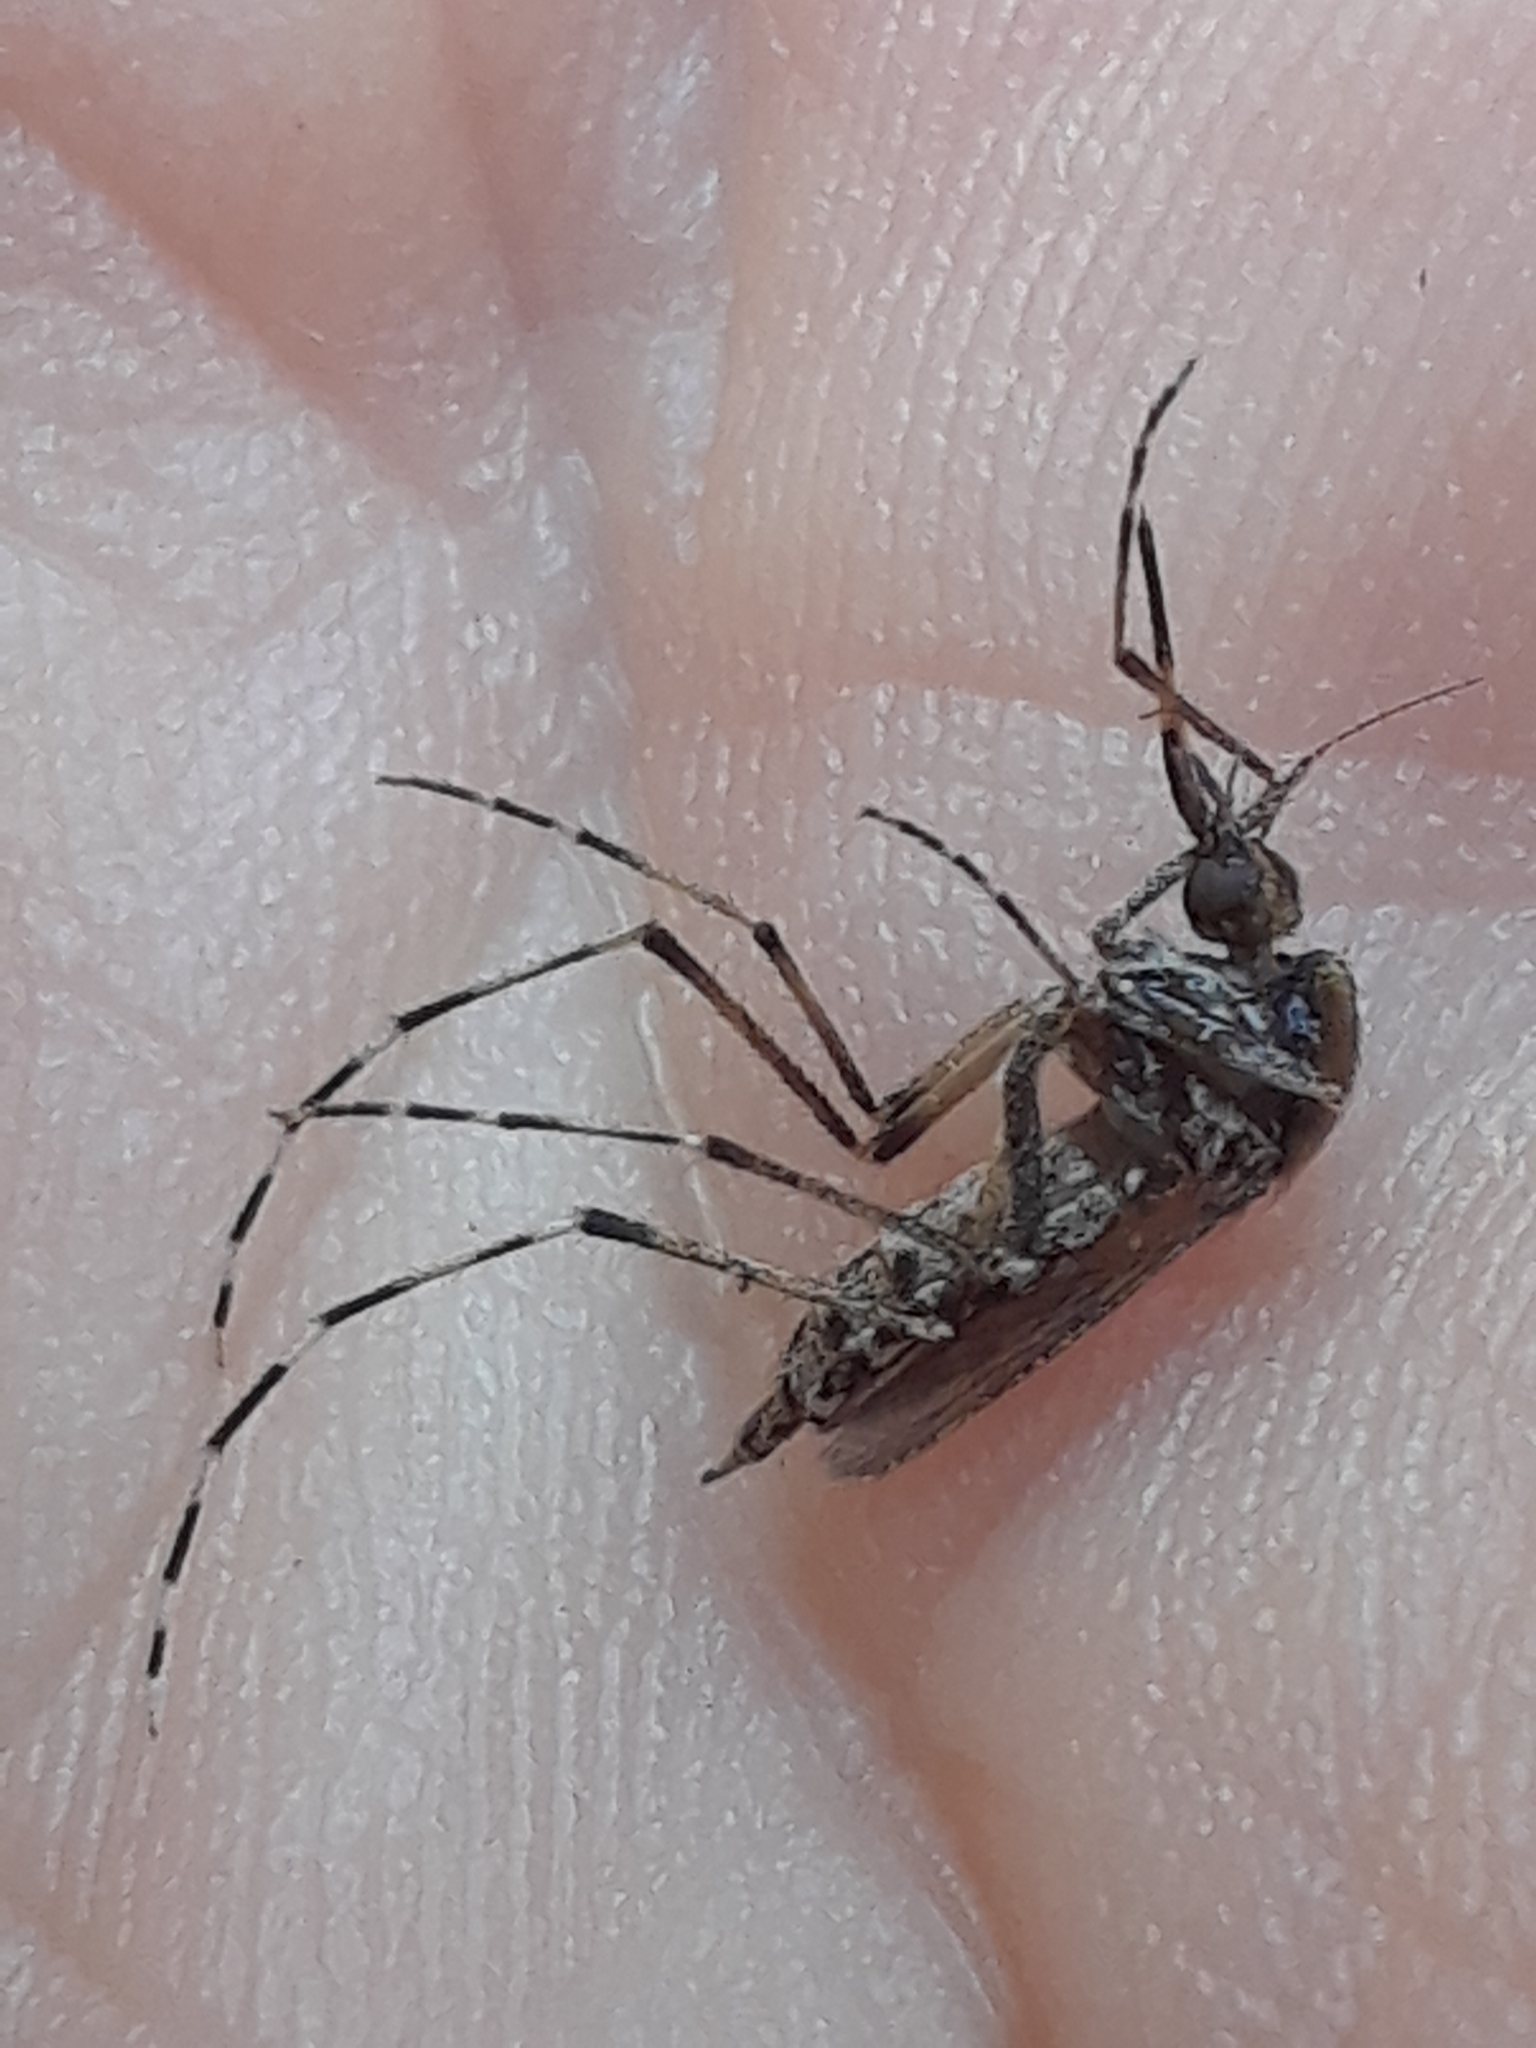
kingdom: Animalia
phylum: Arthropoda
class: Insecta
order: Diptera
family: Culicidae
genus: Aedes
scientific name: Aedes sollicitans
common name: Saltmarsh mosquito
